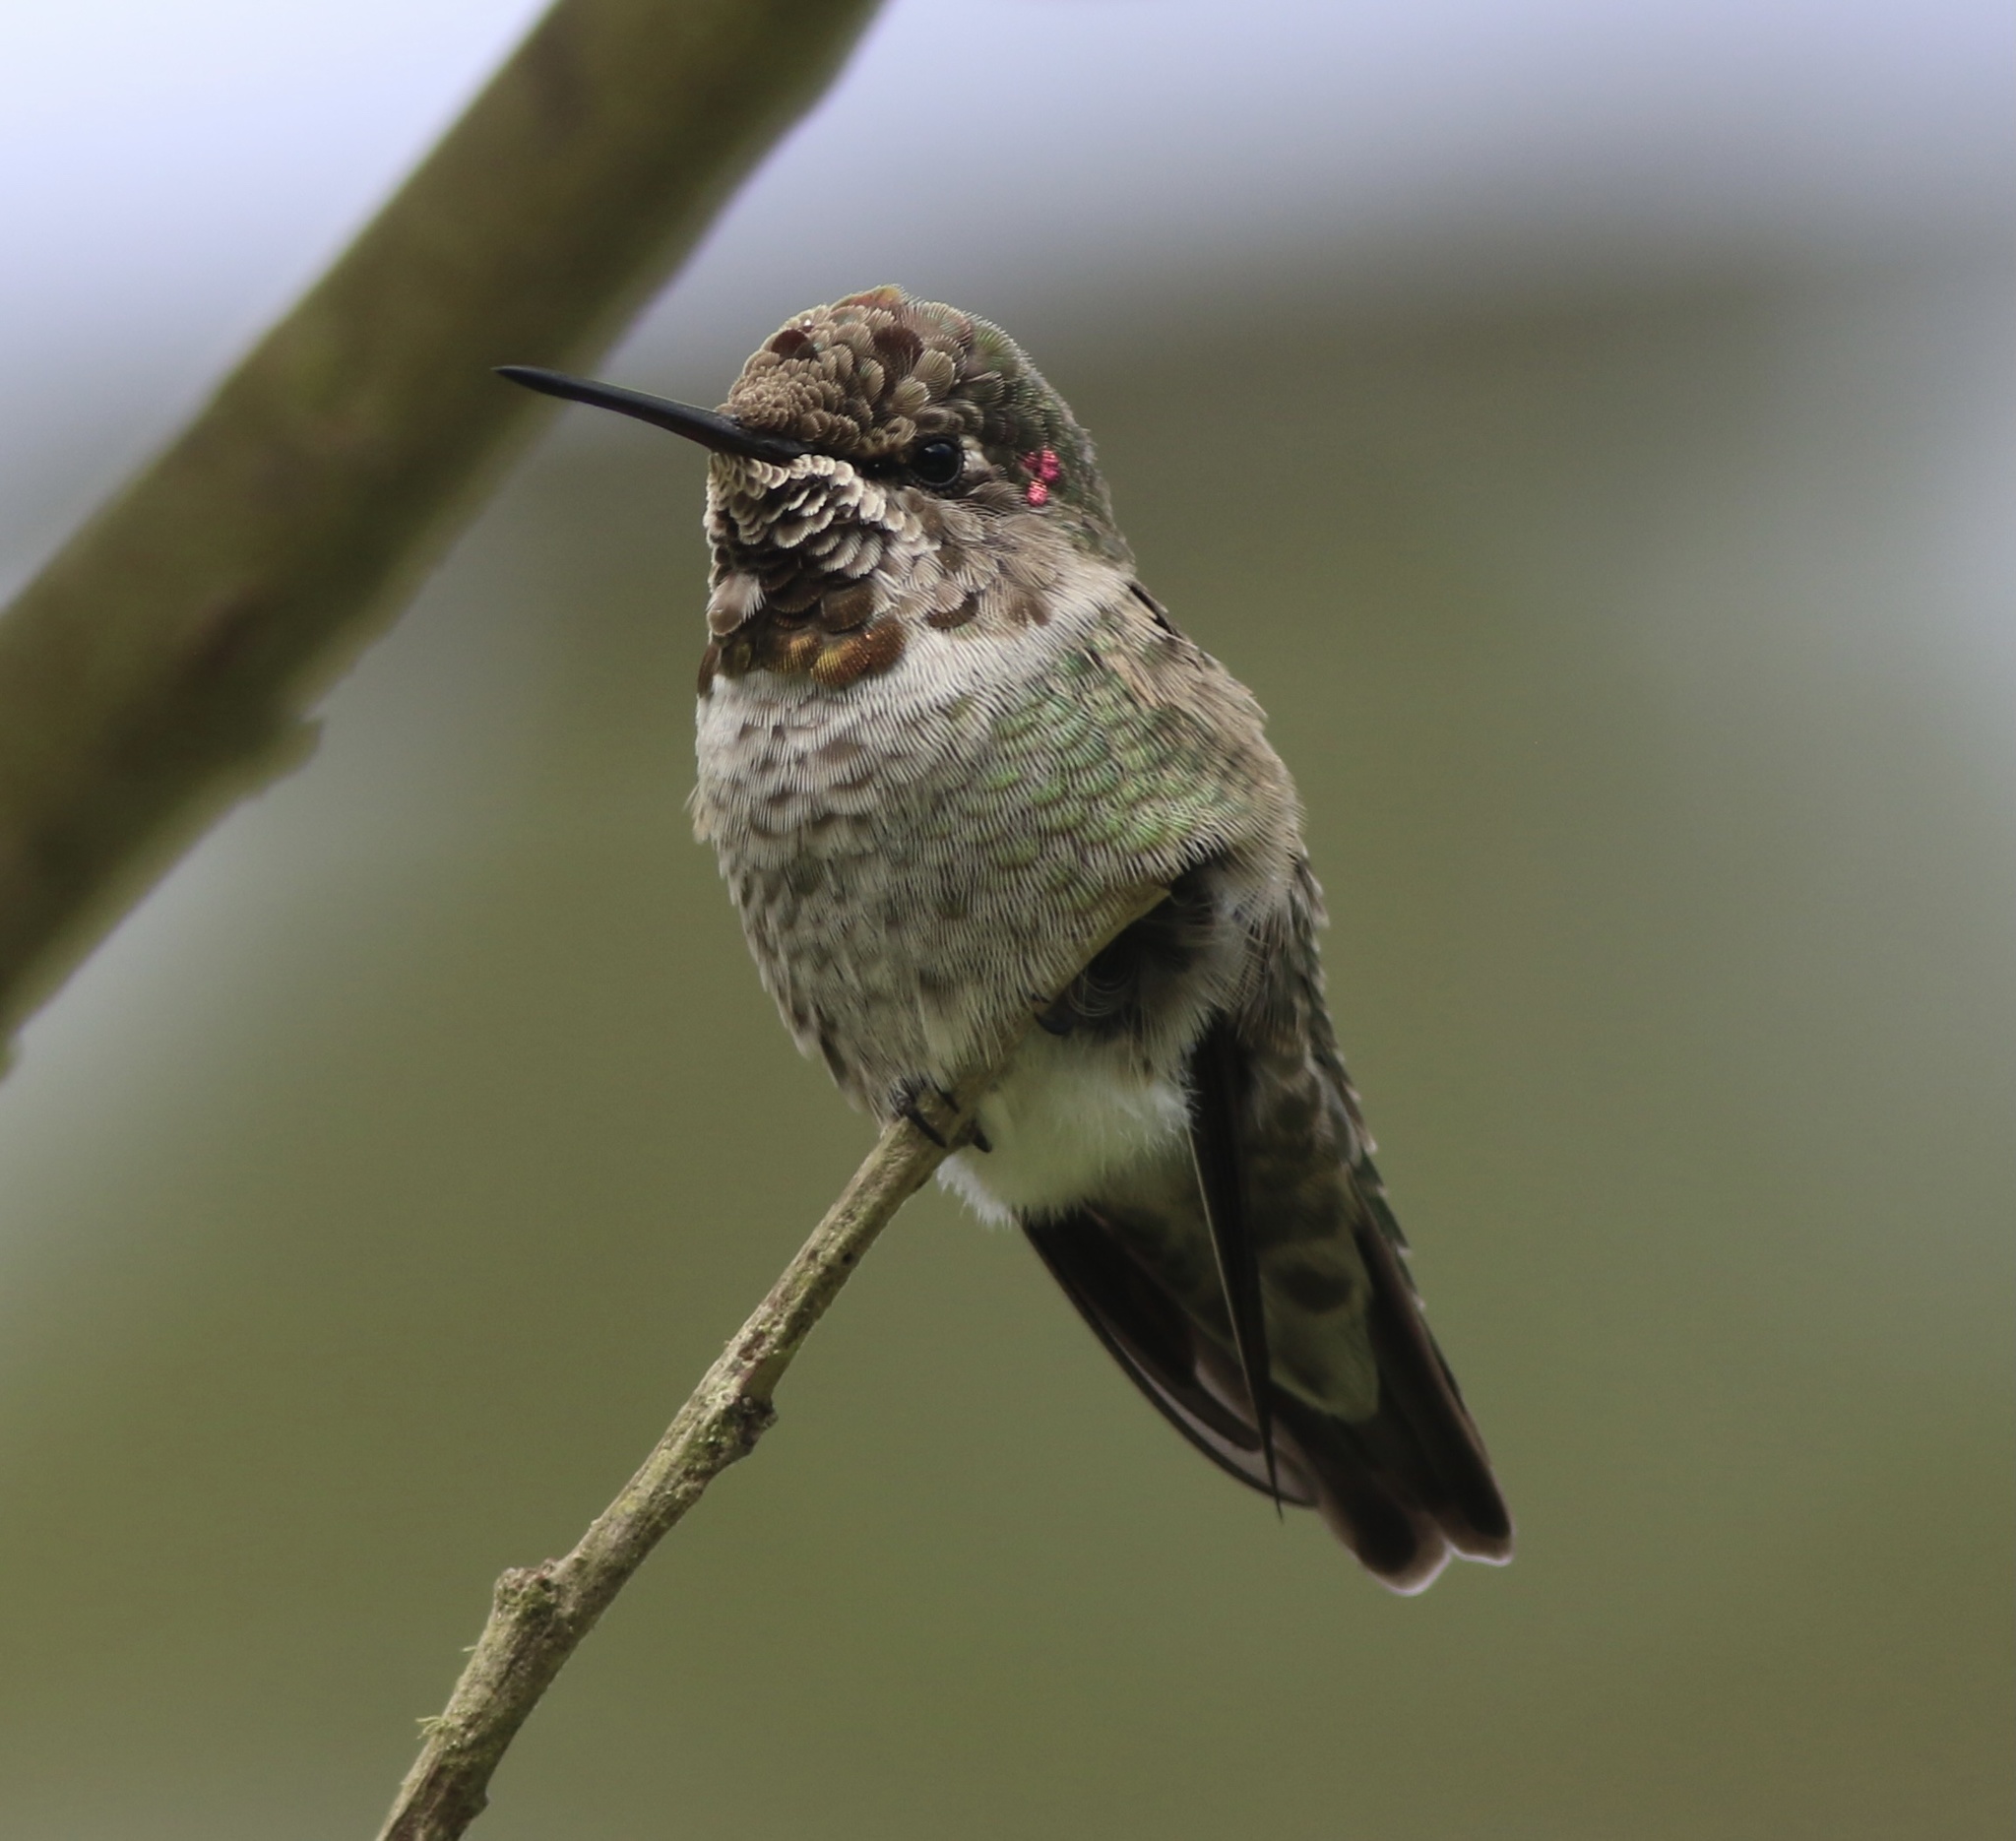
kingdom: Animalia
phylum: Chordata
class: Aves
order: Apodiformes
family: Trochilidae
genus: Calypte
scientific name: Calypte anna
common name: Anna's hummingbird
